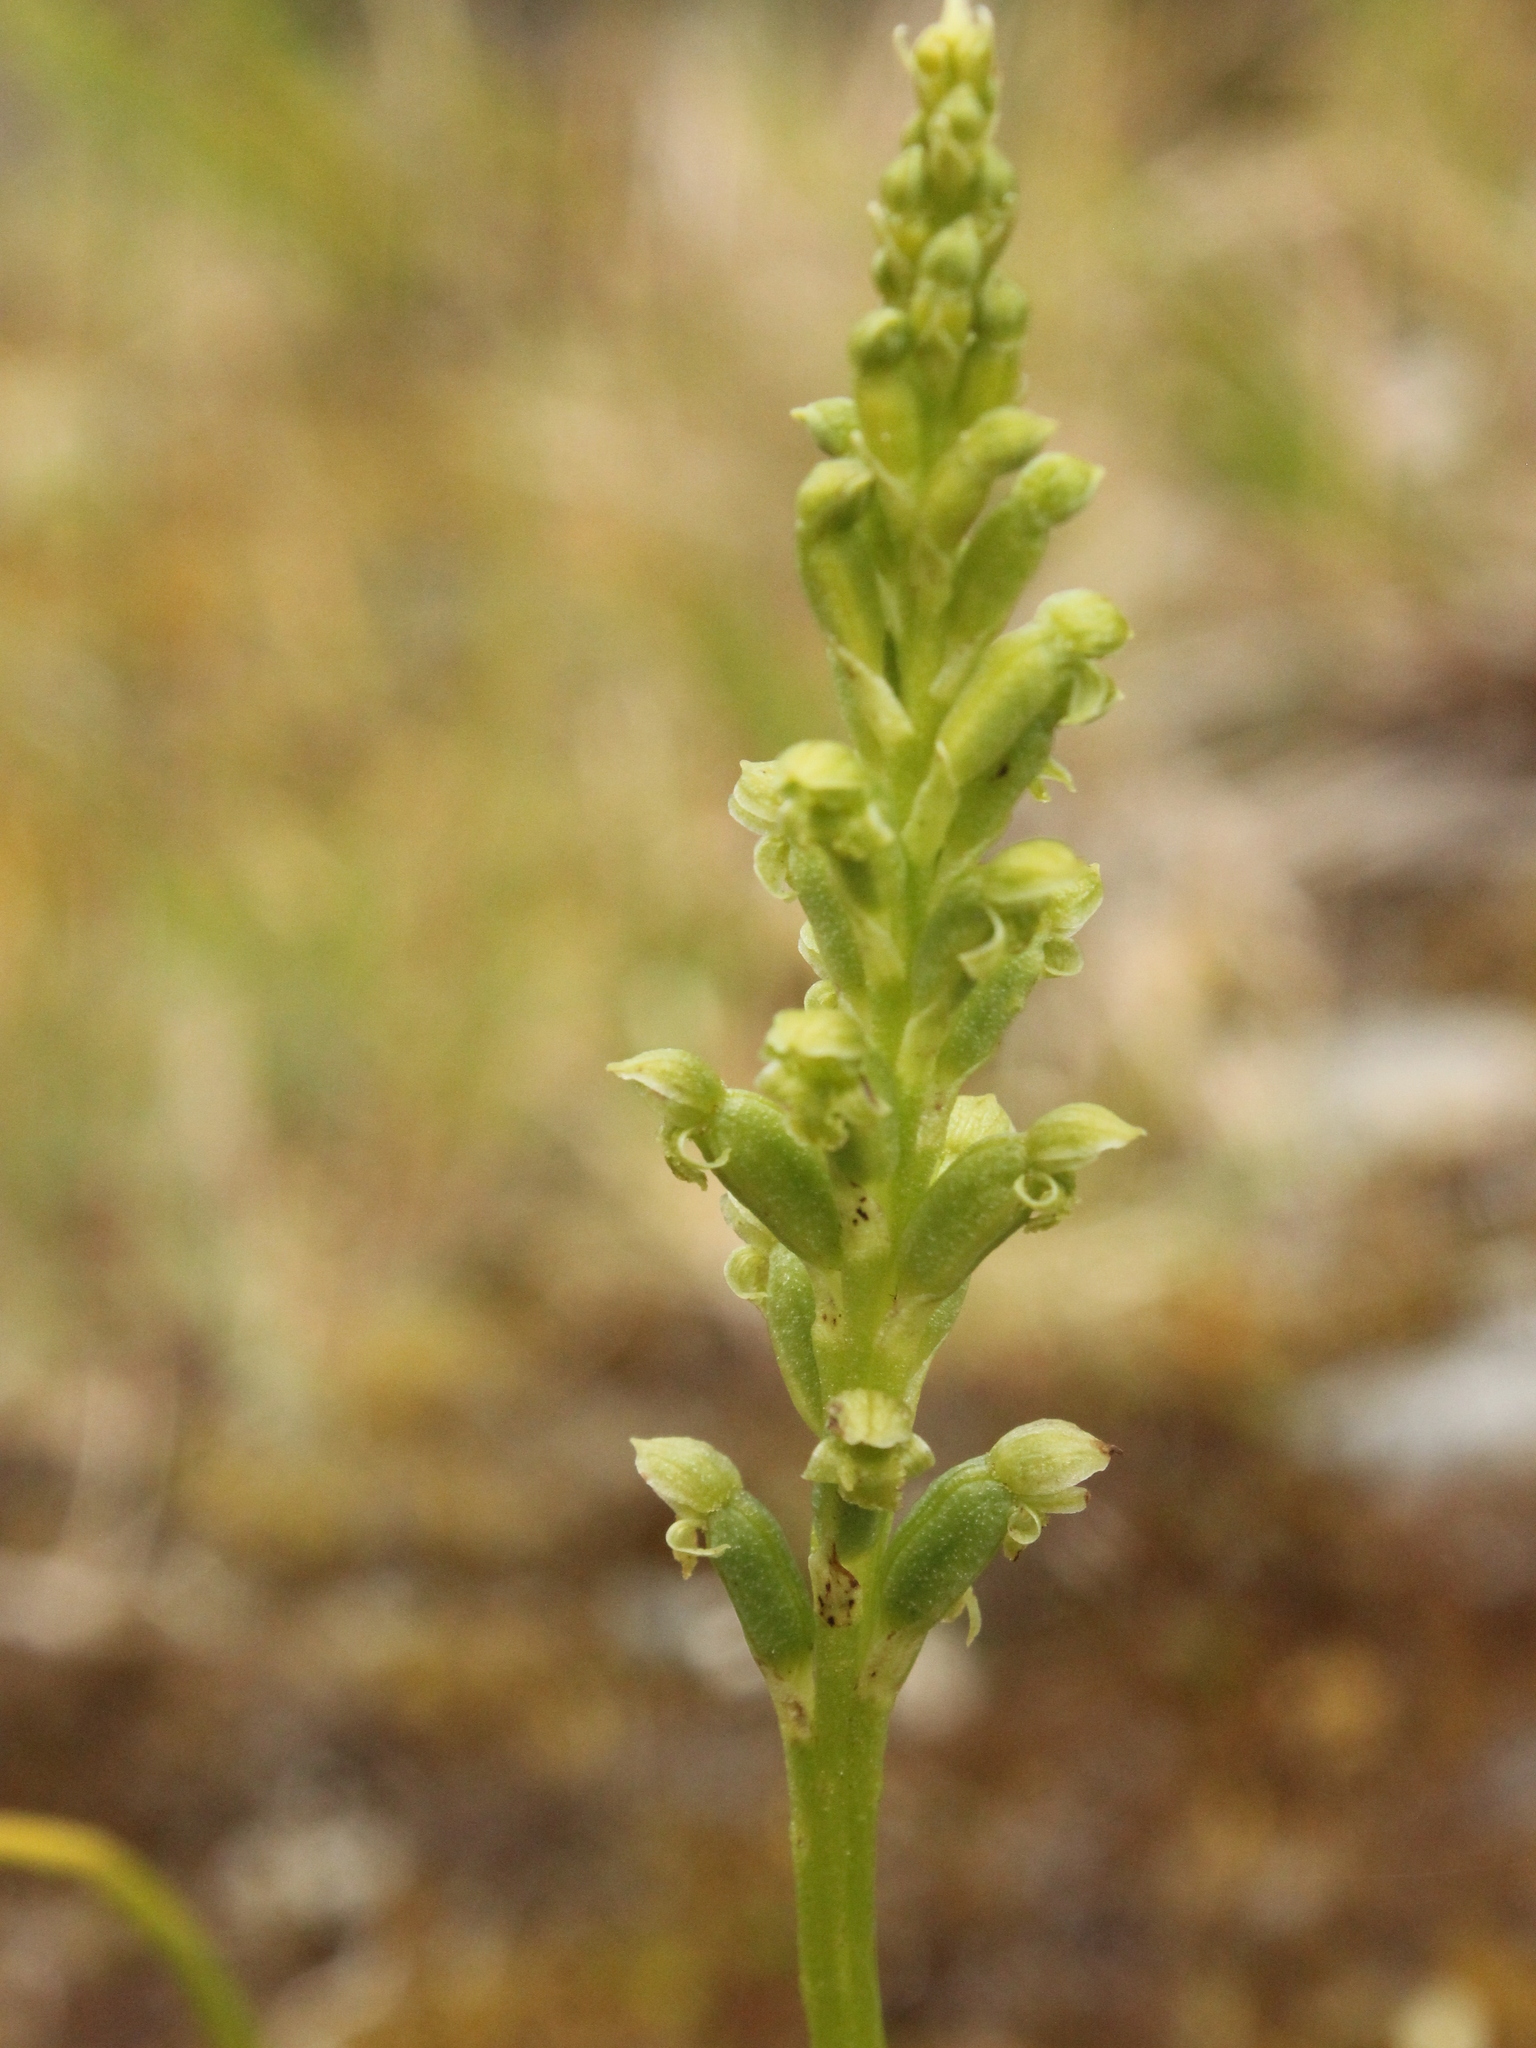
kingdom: Plantae
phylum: Tracheophyta
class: Liliopsida
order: Asparagales
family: Orchidaceae
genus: Microtis
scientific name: Microtis unifolia
